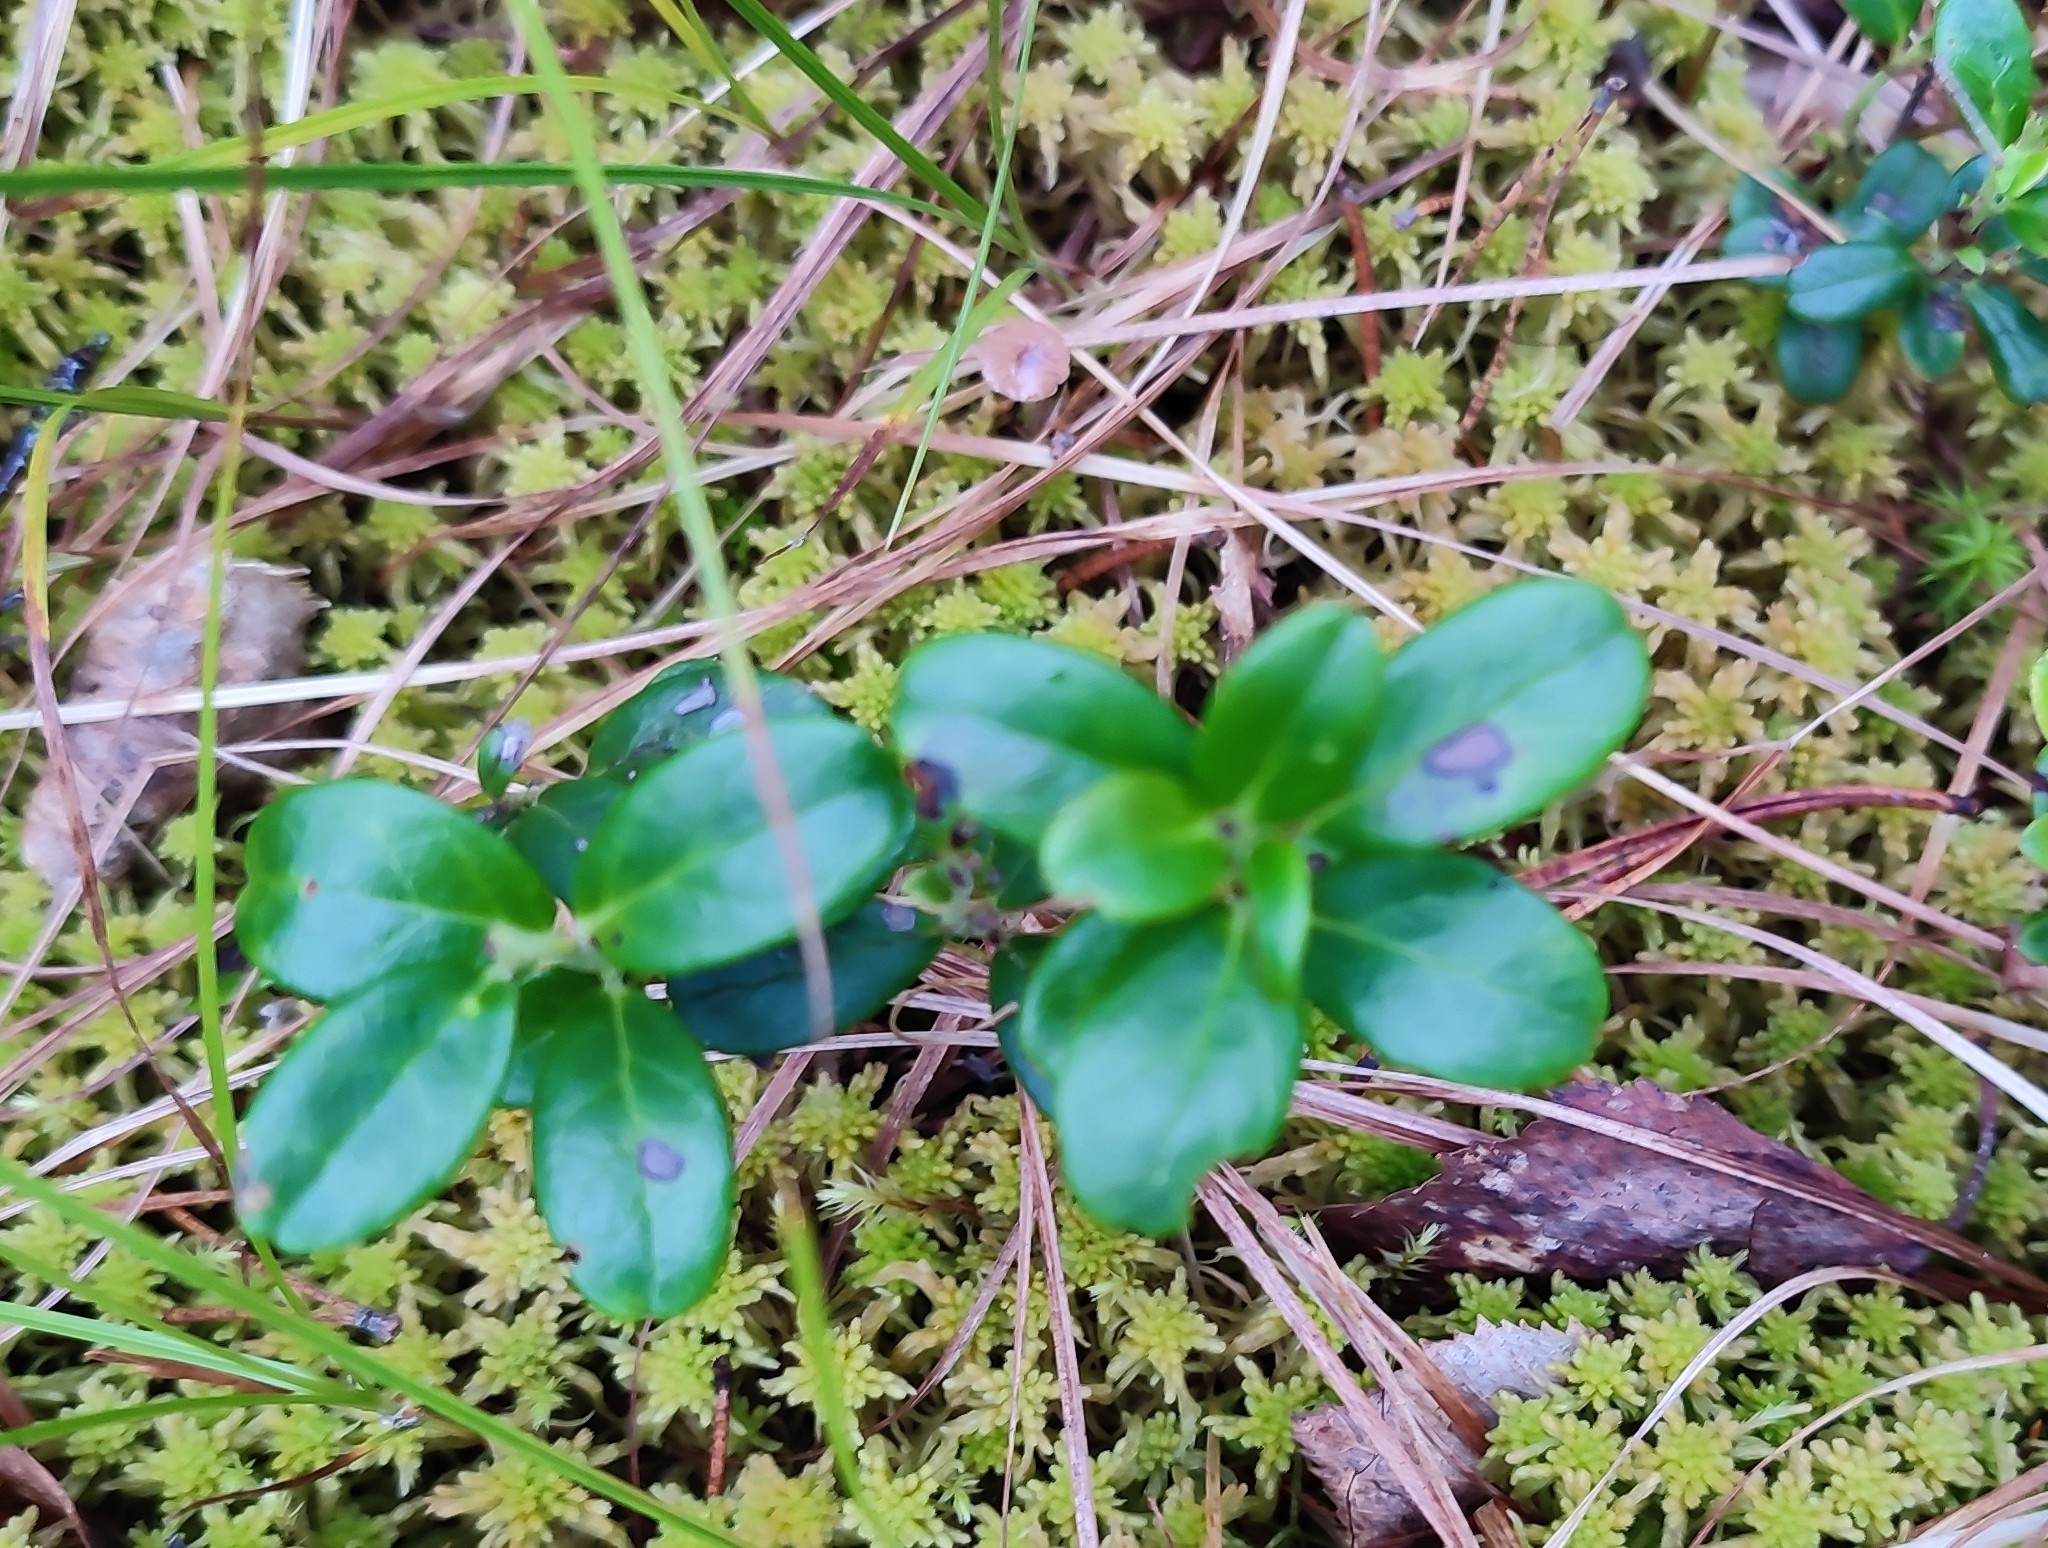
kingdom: Plantae
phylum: Tracheophyta
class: Magnoliopsida
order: Ericales
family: Ericaceae
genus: Vaccinium
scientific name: Vaccinium vitis-idaea
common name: Cowberry
